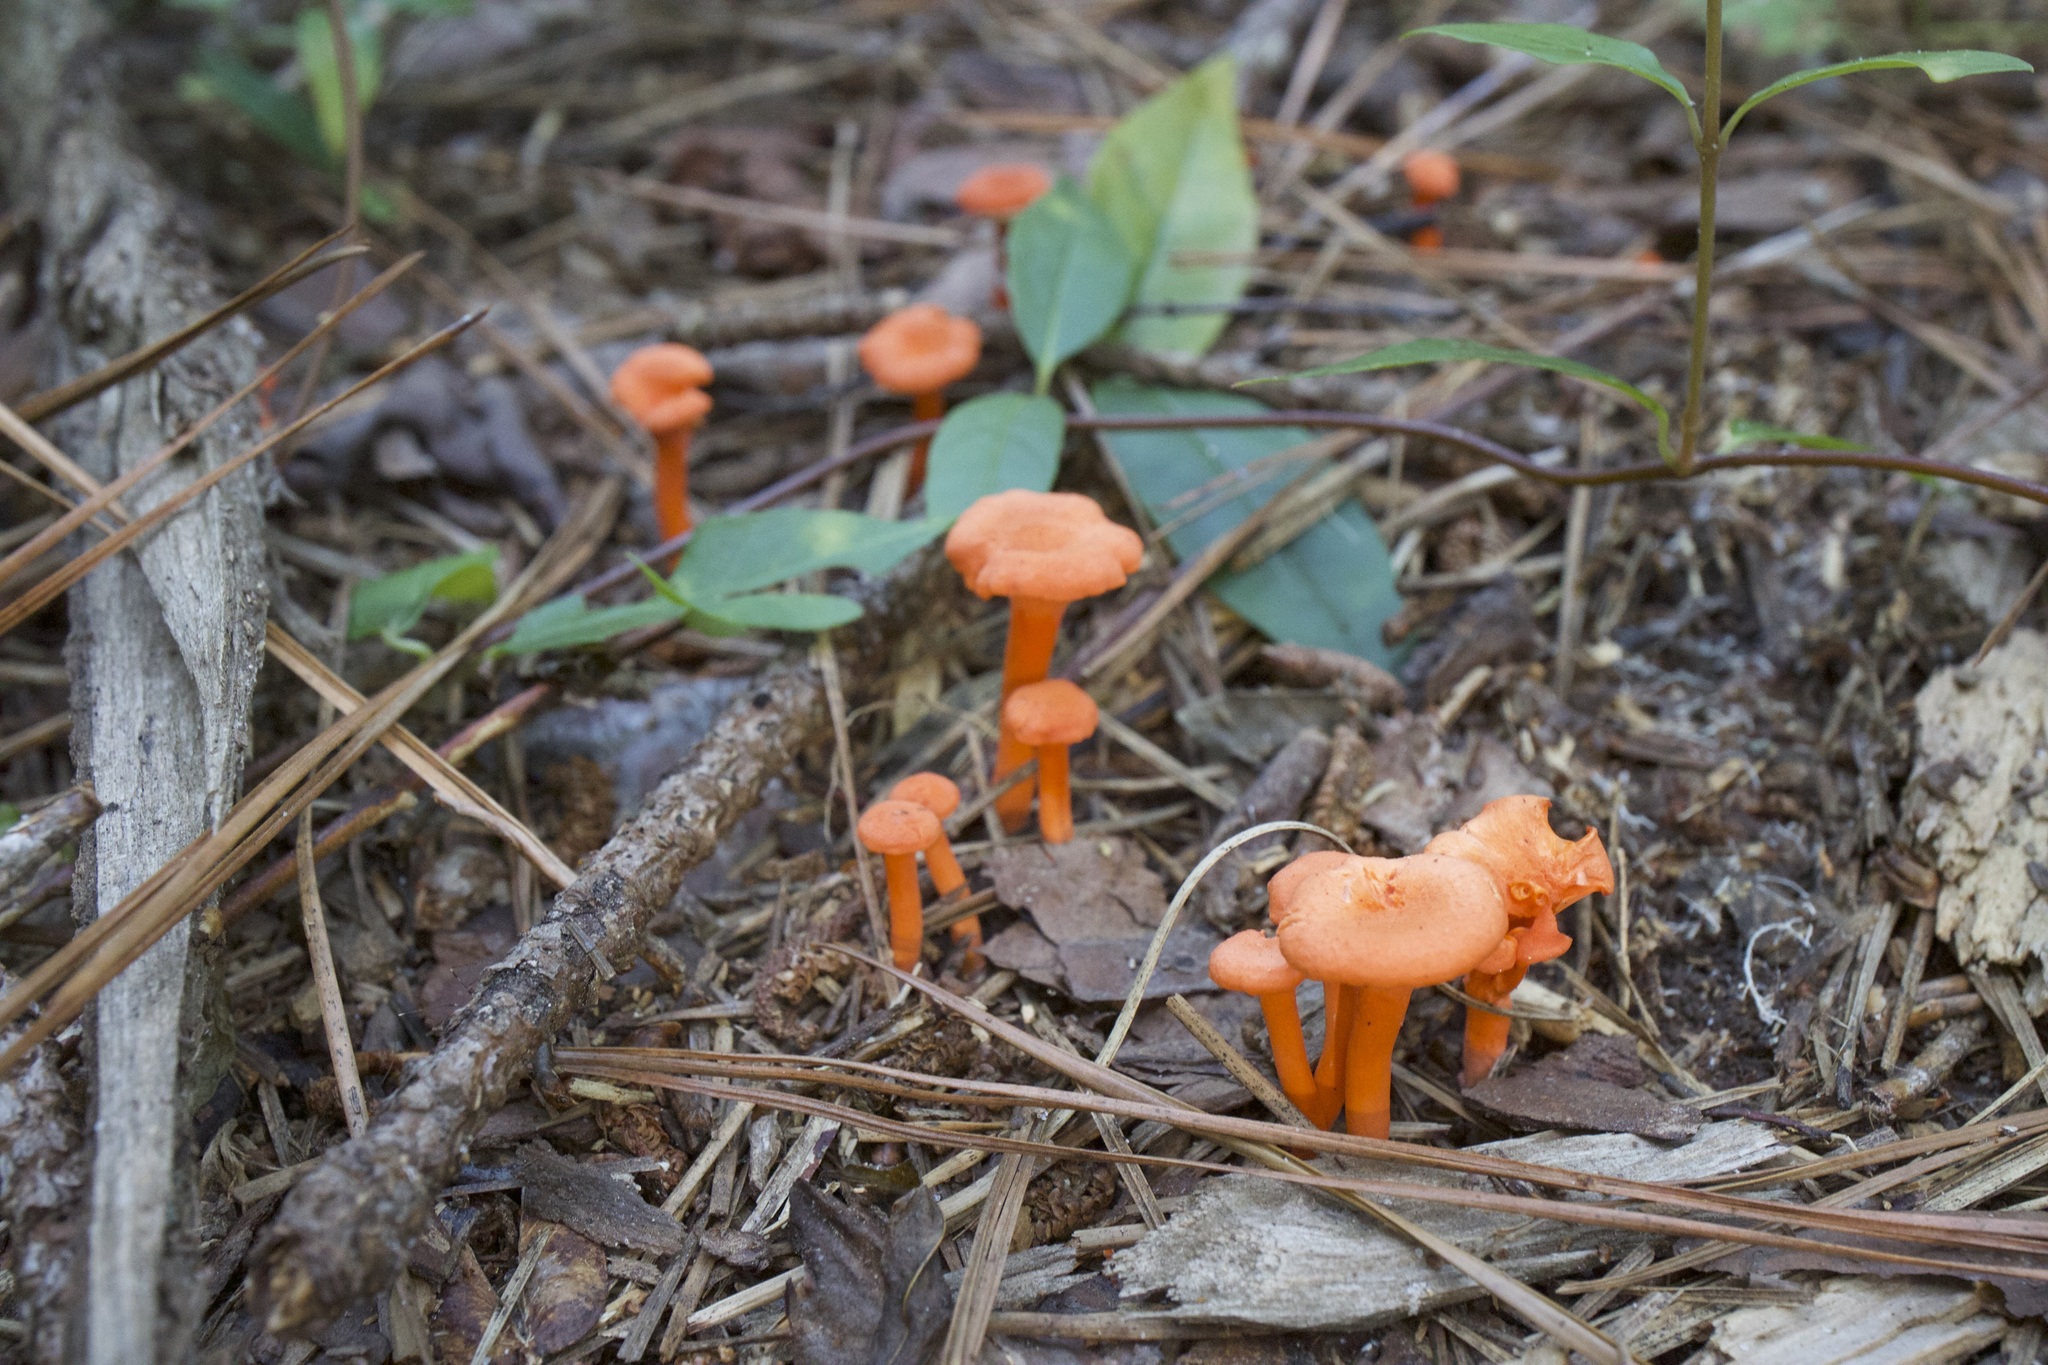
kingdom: Fungi
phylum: Basidiomycota
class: Agaricomycetes
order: Cantharellales
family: Hydnaceae
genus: Cantharellus
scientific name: Cantharellus cinnabarinus
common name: Cinnabar chanterelle
